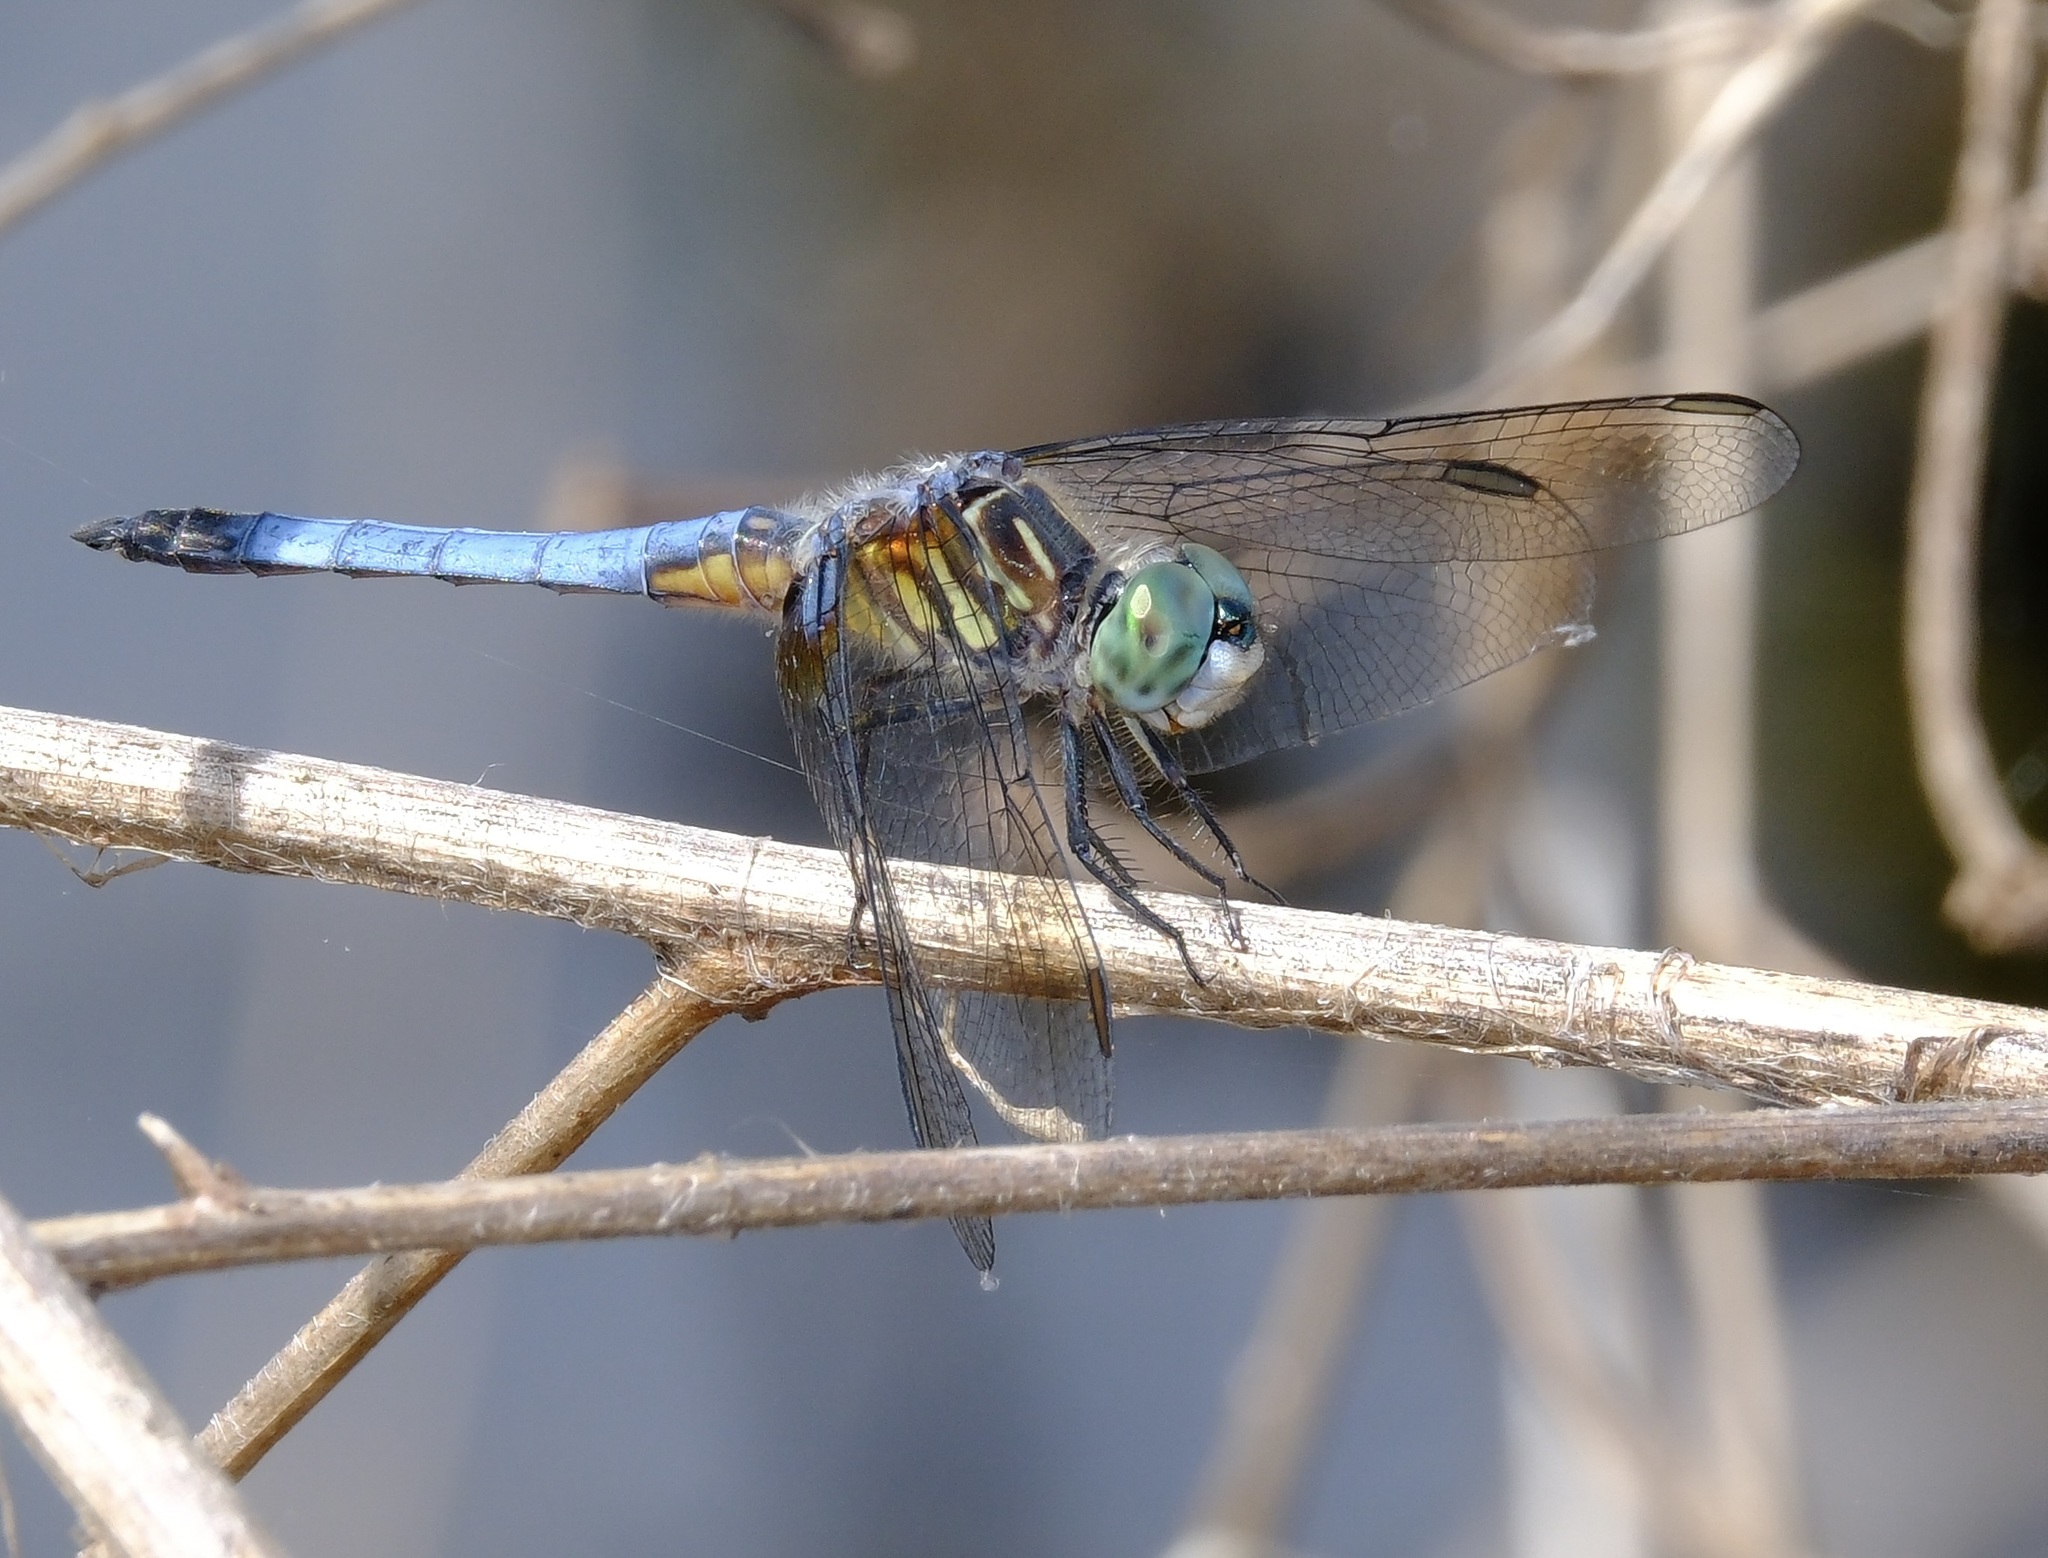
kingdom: Animalia
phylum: Arthropoda
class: Insecta
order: Odonata
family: Libellulidae
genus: Pachydiplax
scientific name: Pachydiplax longipennis
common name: Blue dasher
